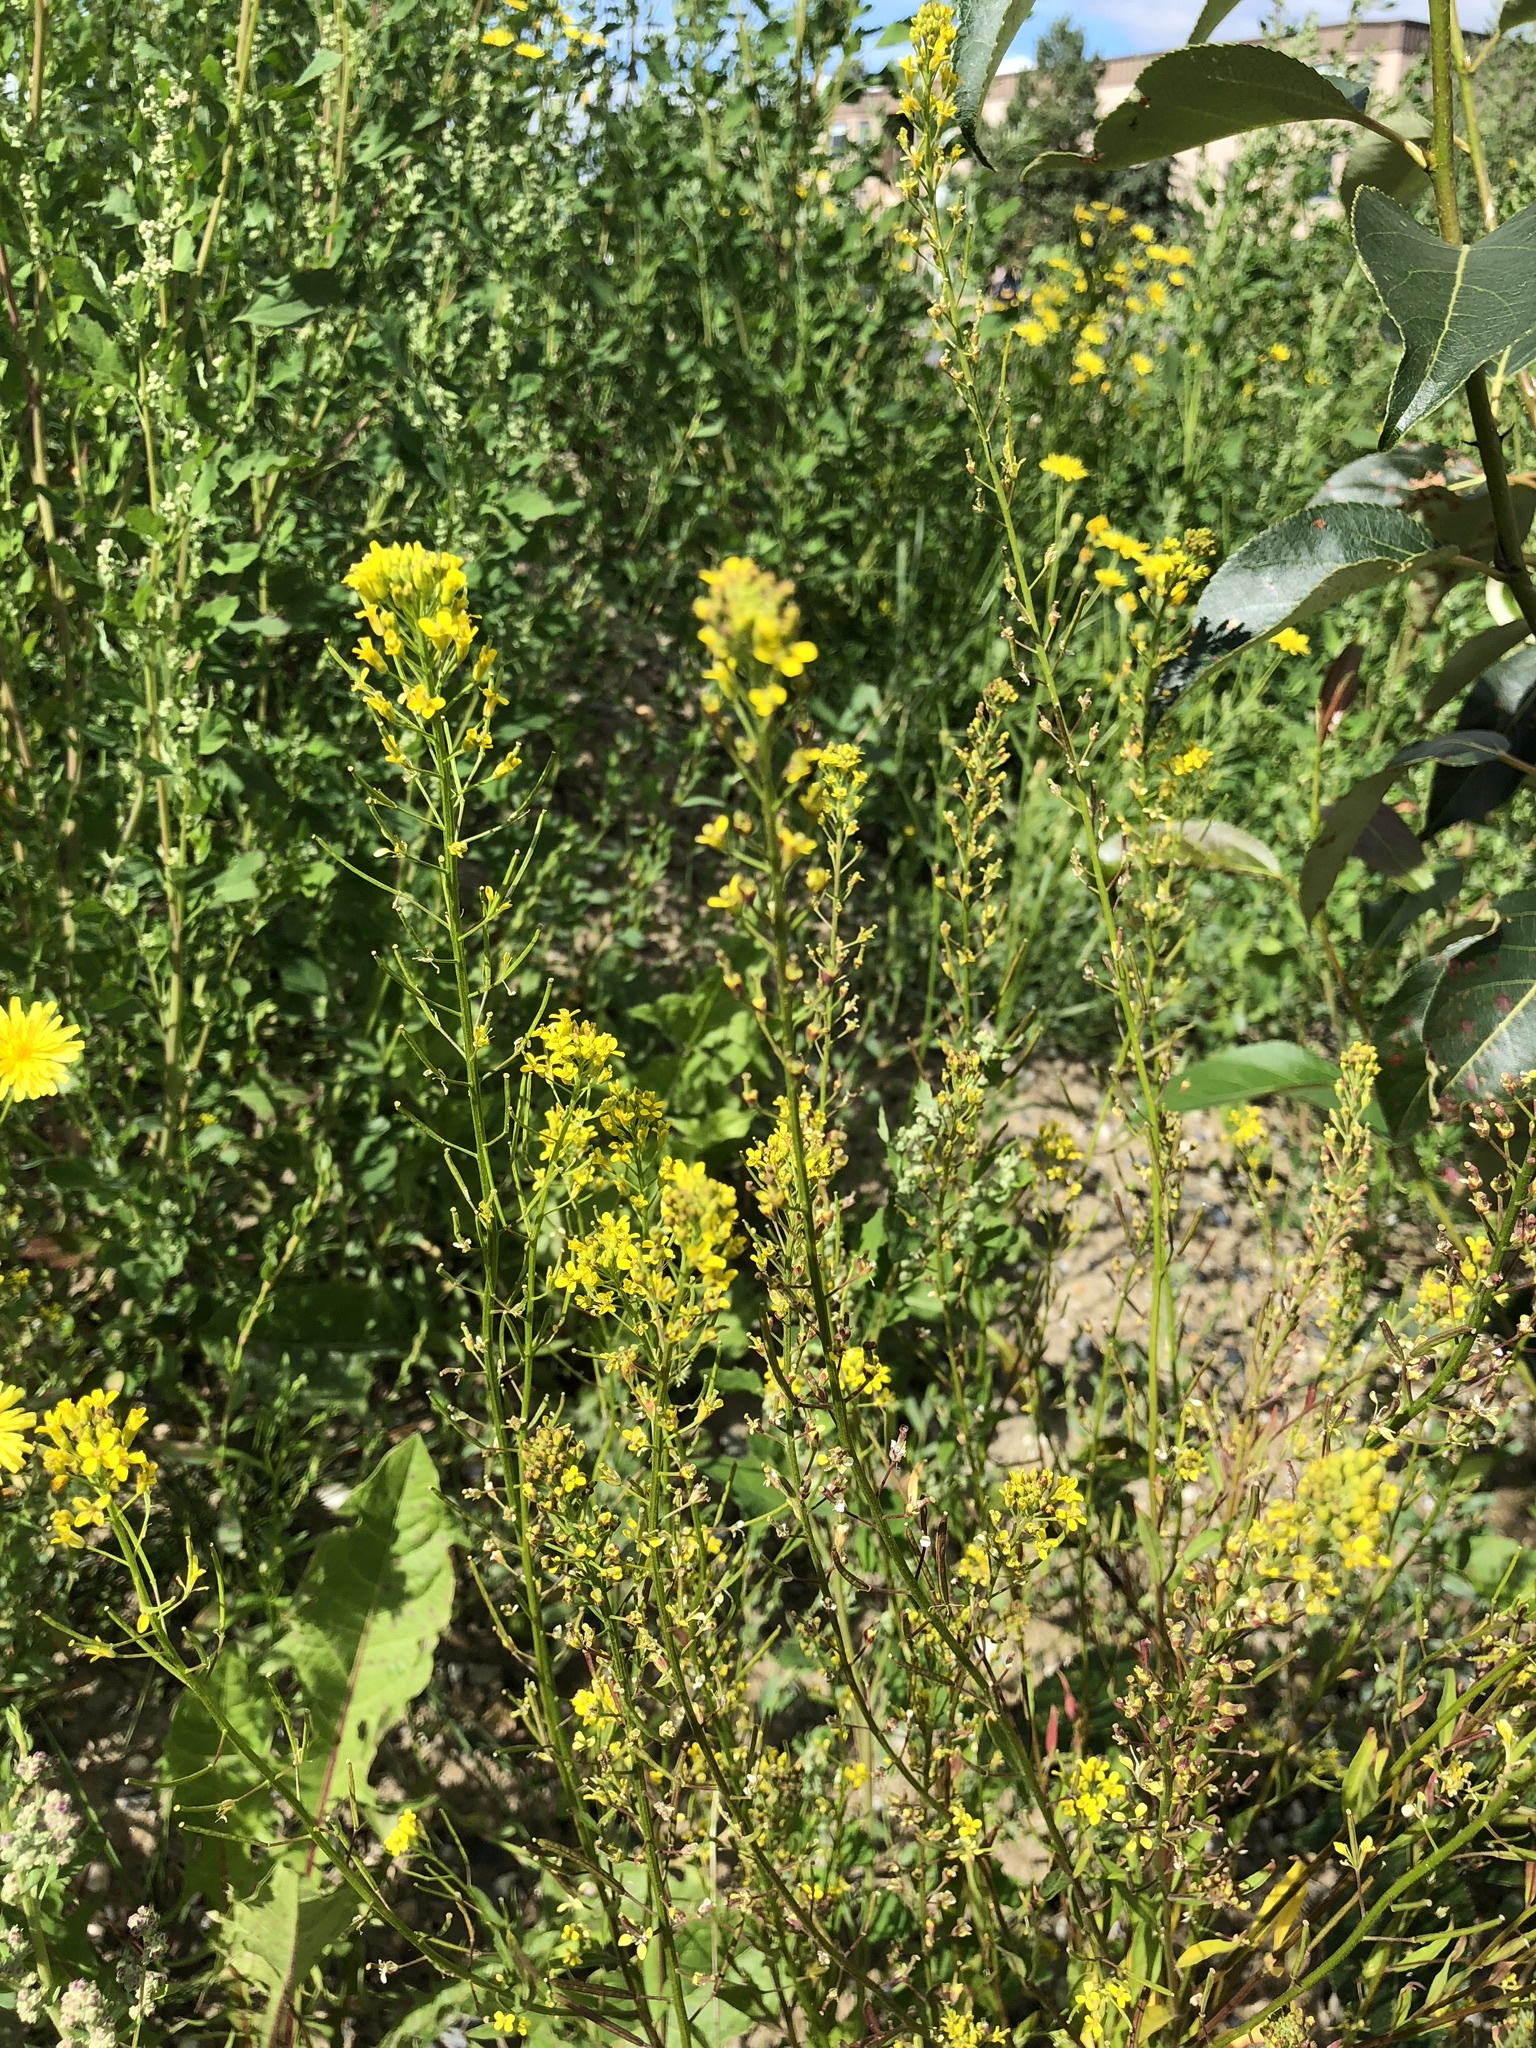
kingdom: Plantae
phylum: Tracheophyta
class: Magnoliopsida
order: Brassicales
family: Brassicaceae
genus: Erysimum
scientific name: Erysimum cheiranthoides
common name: Treacle mustard
